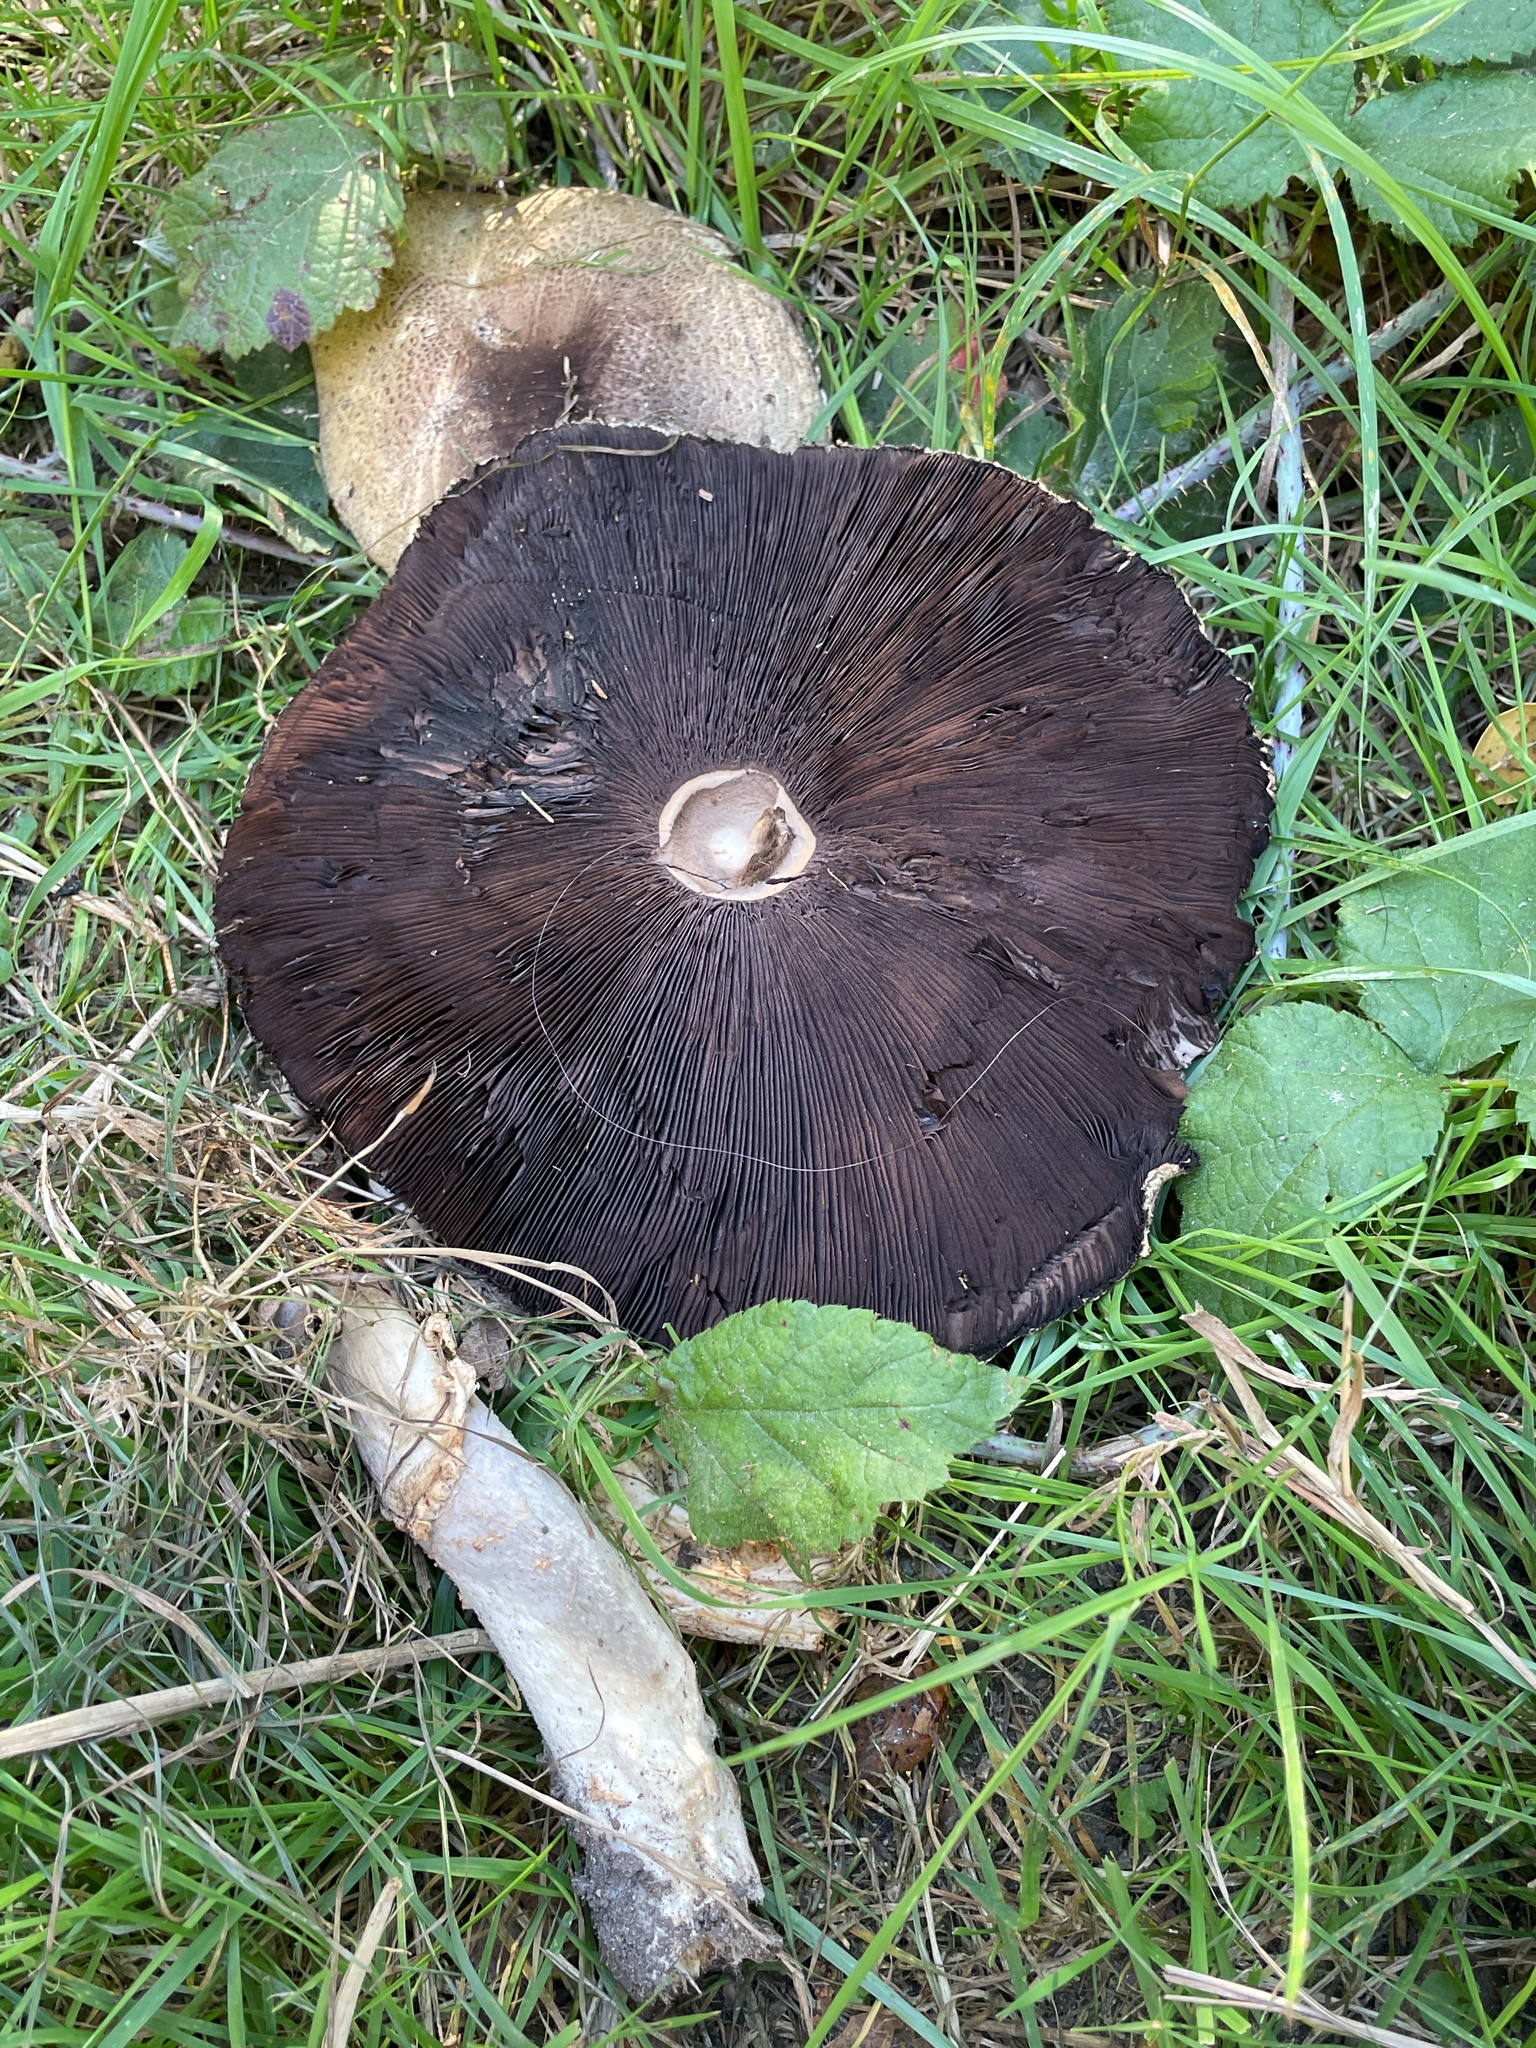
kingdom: Fungi
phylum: Basidiomycota
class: Agaricomycetes
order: Agaricales
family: Agaricaceae
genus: Agaricus
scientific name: Agaricus augustus
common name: Prince
